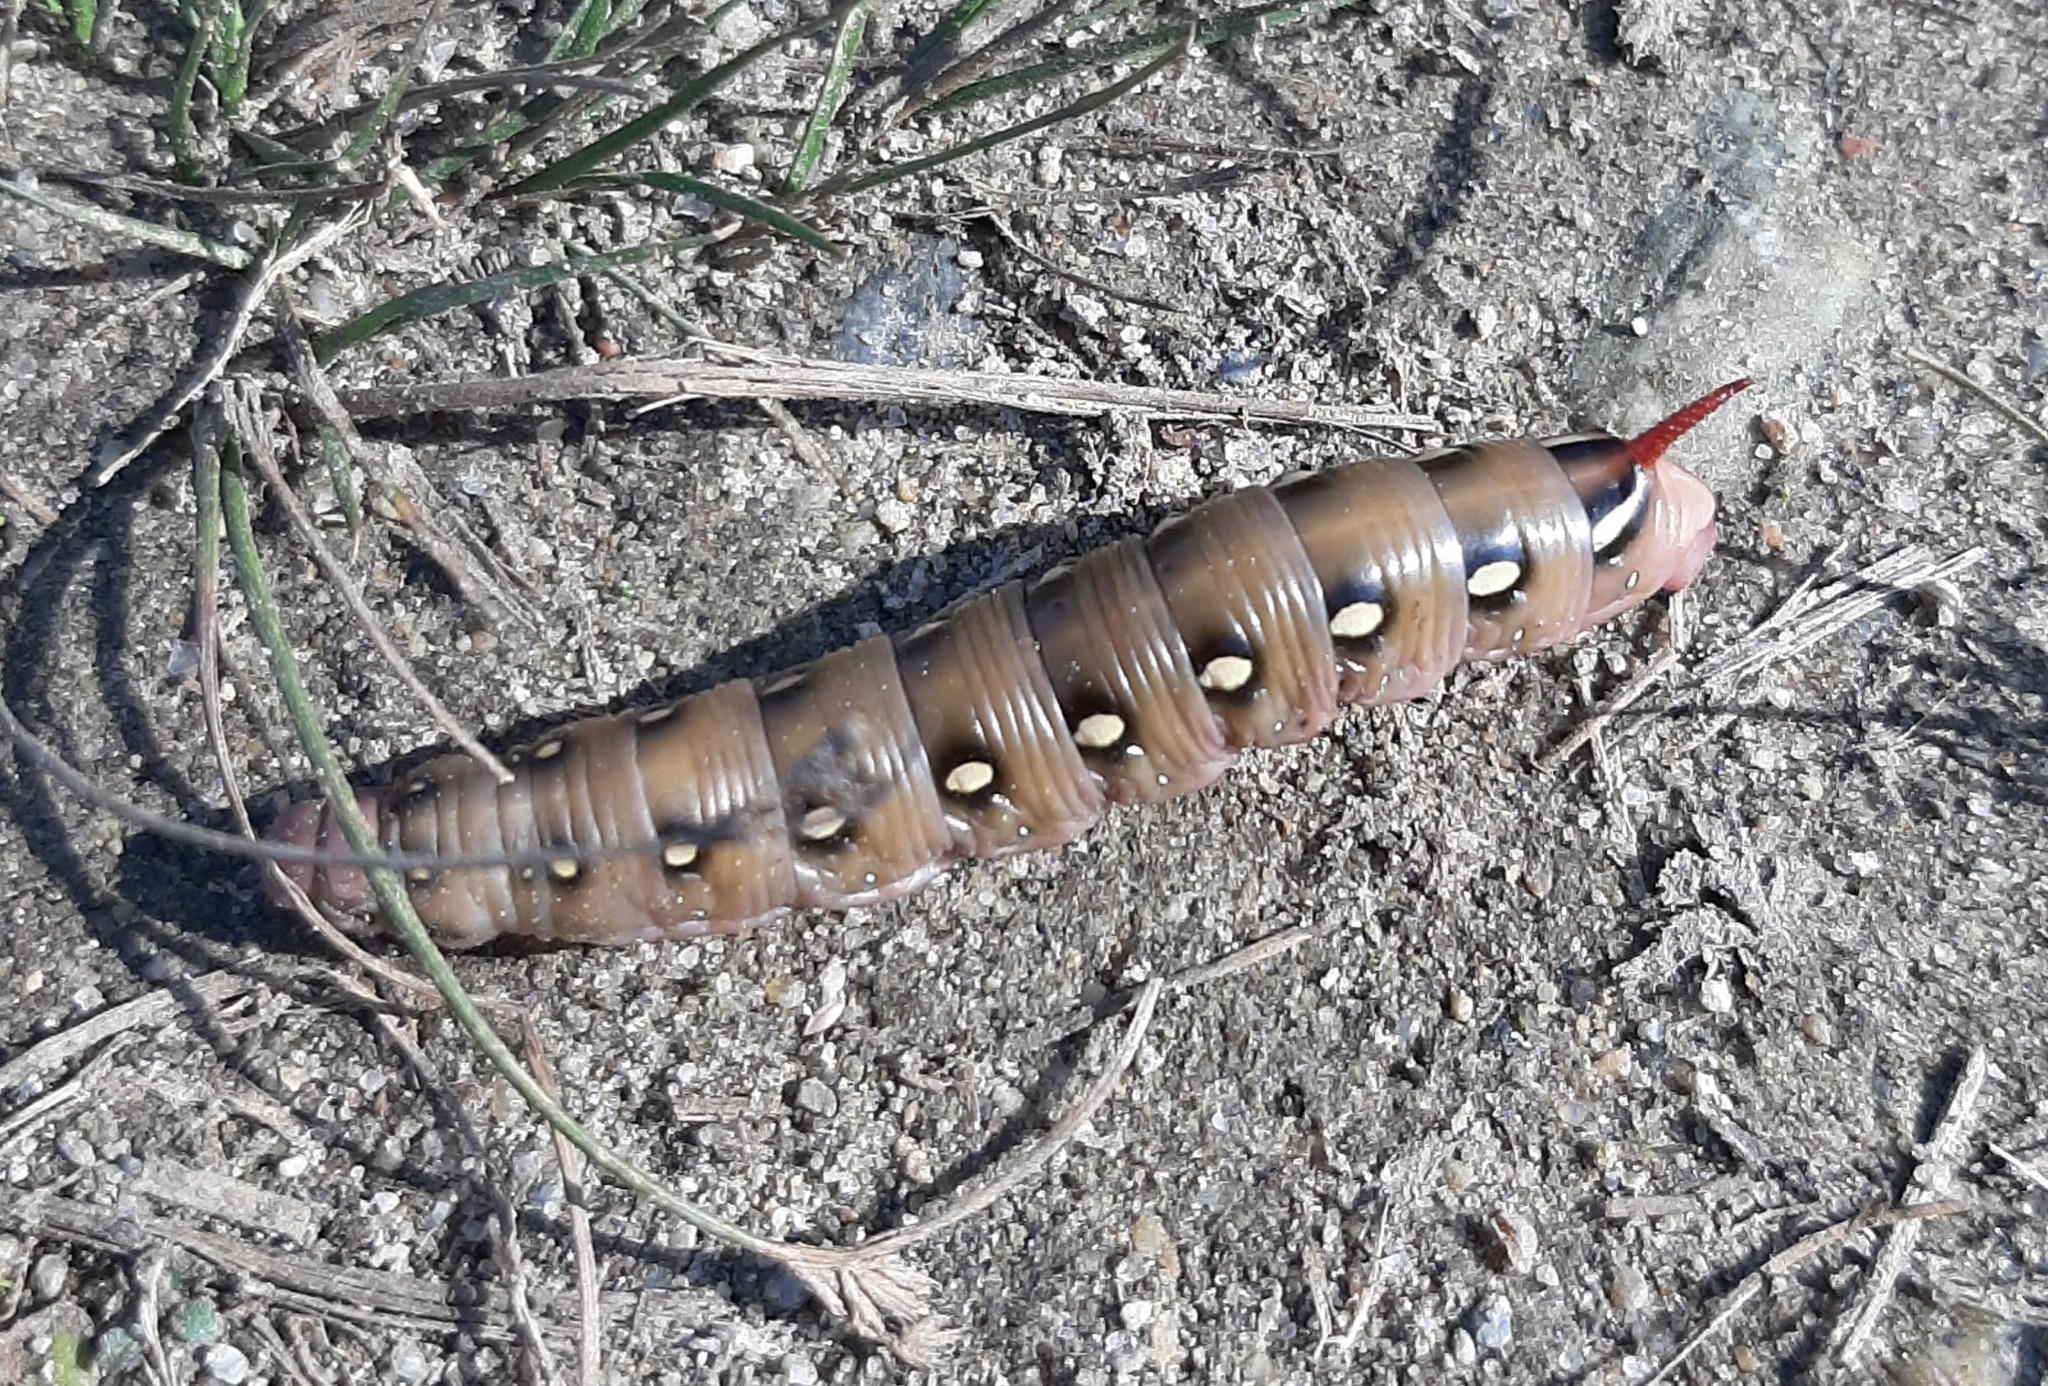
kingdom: Animalia
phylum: Arthropoda
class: Insecta
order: Lepidoptera
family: Sphingidae
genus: Hyles
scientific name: Hyles gallii
